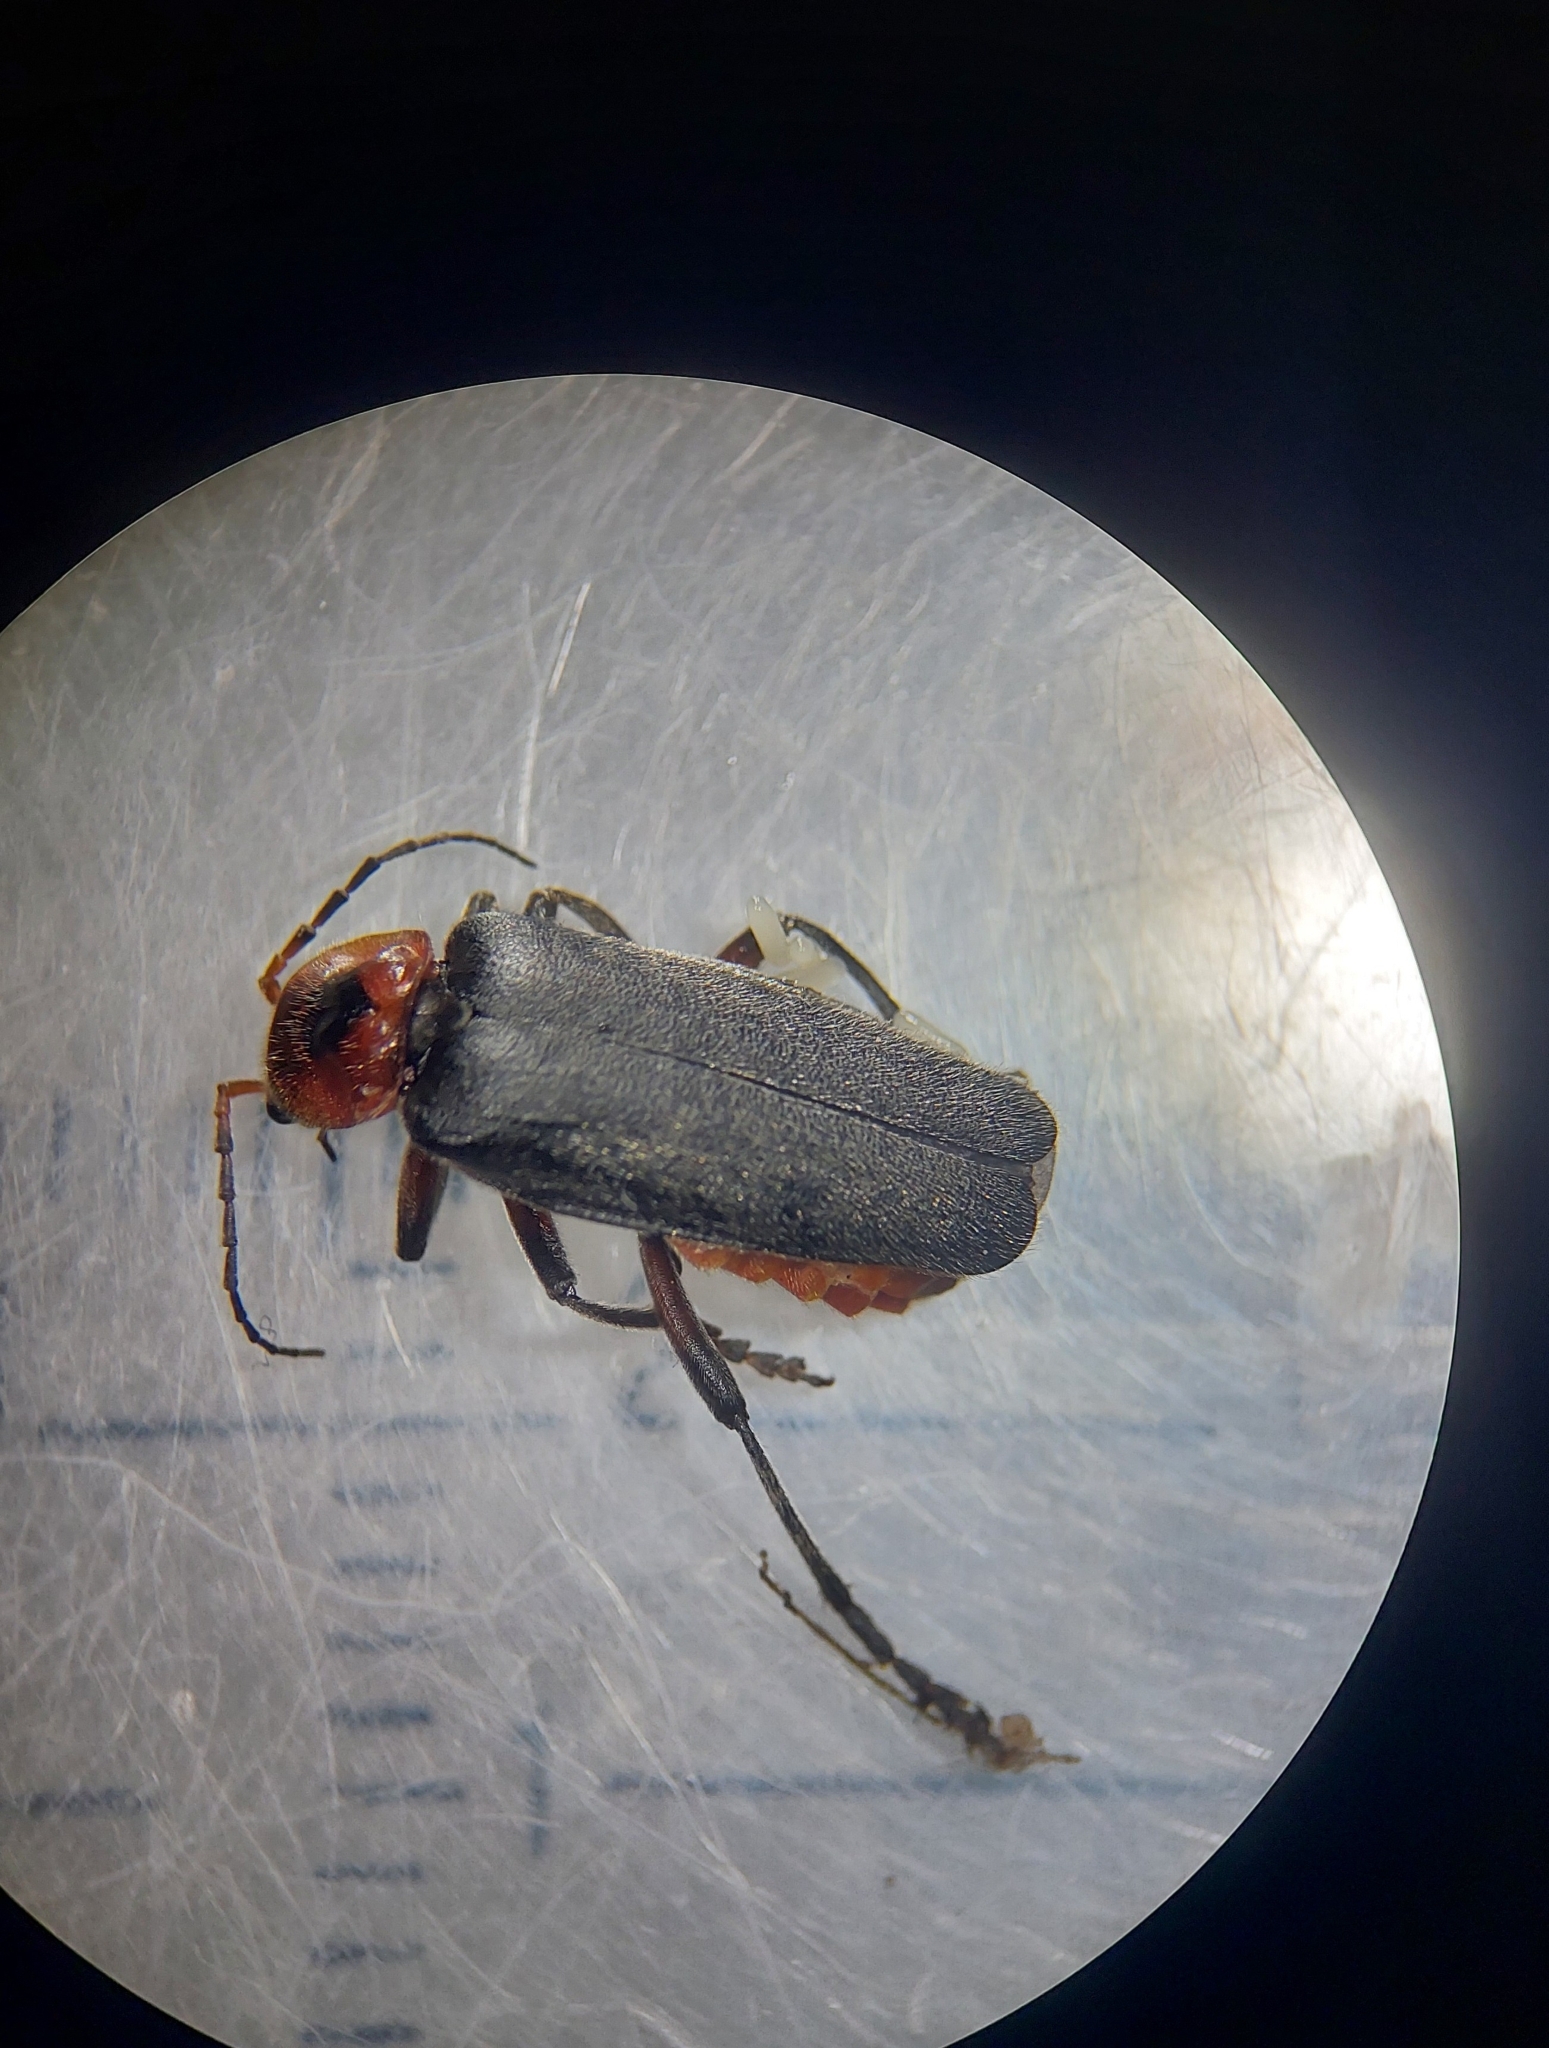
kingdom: Animalia
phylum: Arthropoda
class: Insecta
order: Coleoptera
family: Cantharidae
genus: Cantharis
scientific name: Cantharis rustica
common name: Soldier beetle
